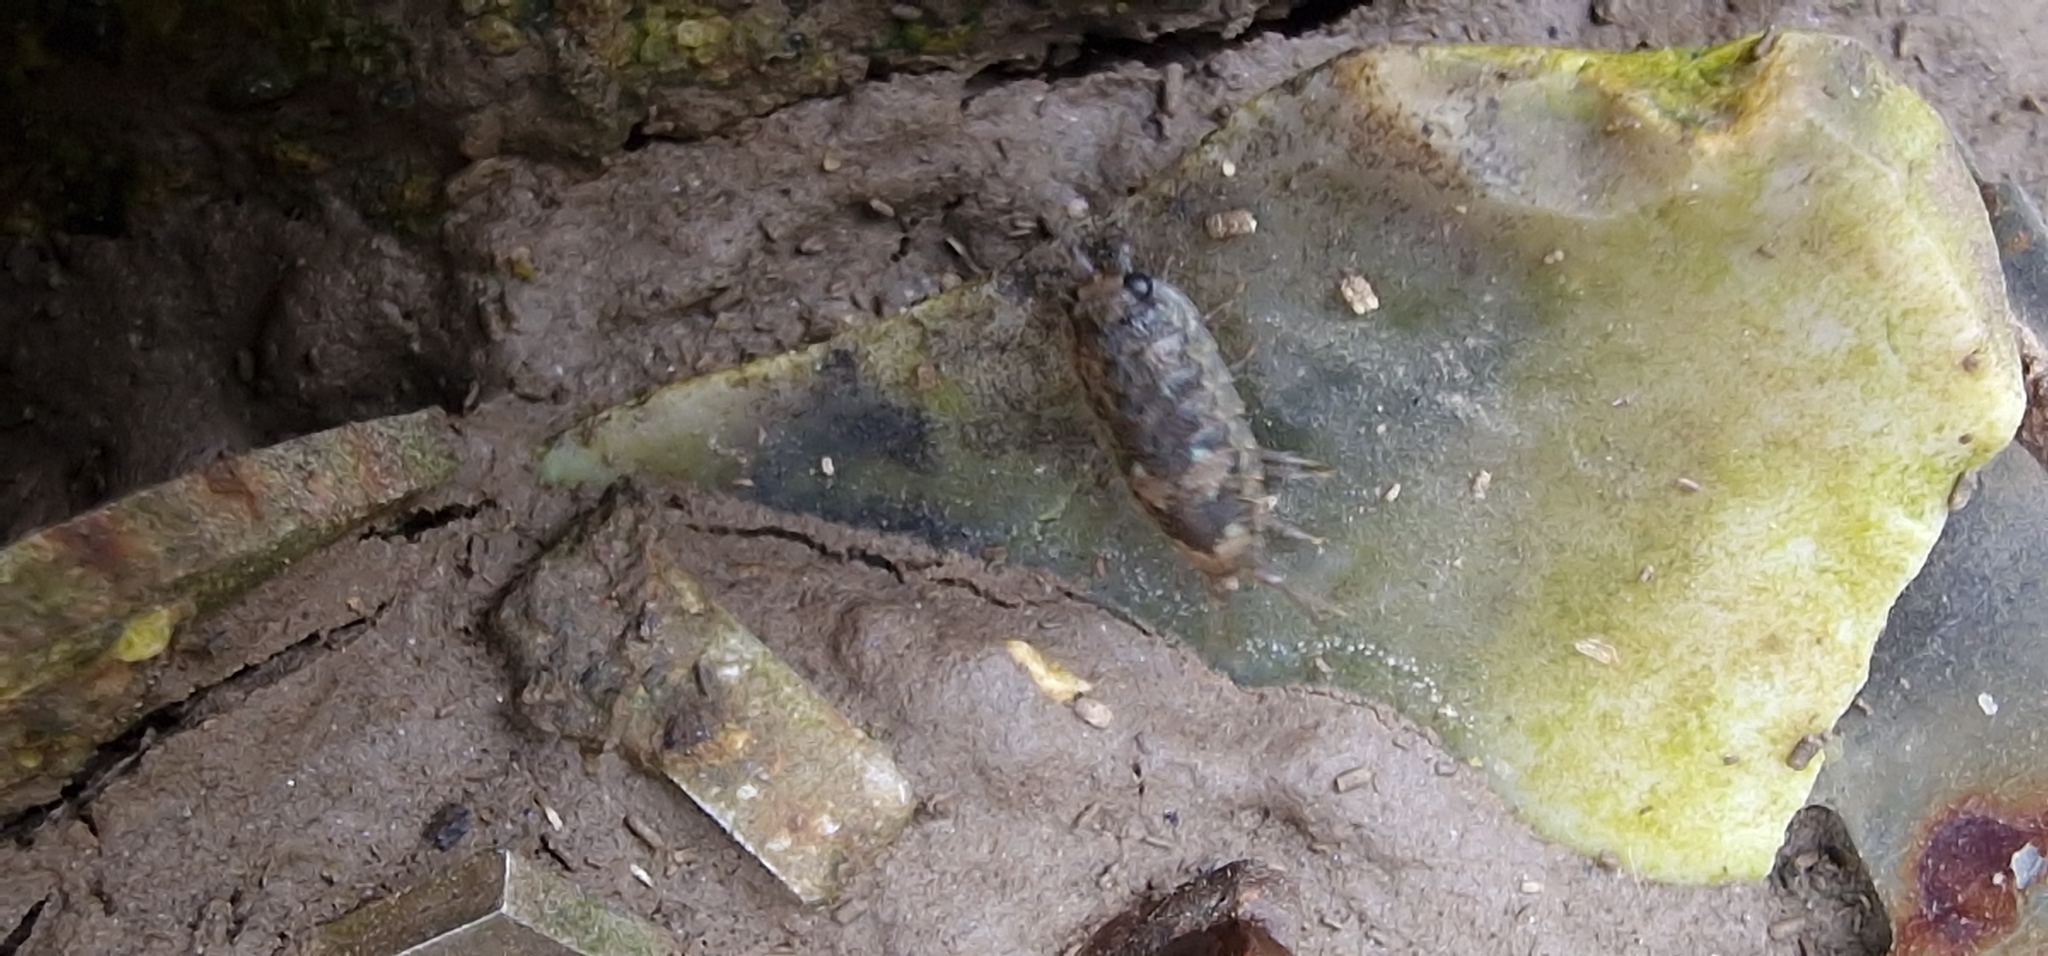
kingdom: Animalia
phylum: Arthropoda
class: Malacostraca
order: Isopoda
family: Ligiidae
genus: Ligia
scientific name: Ligia oceanica
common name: Sea slater
